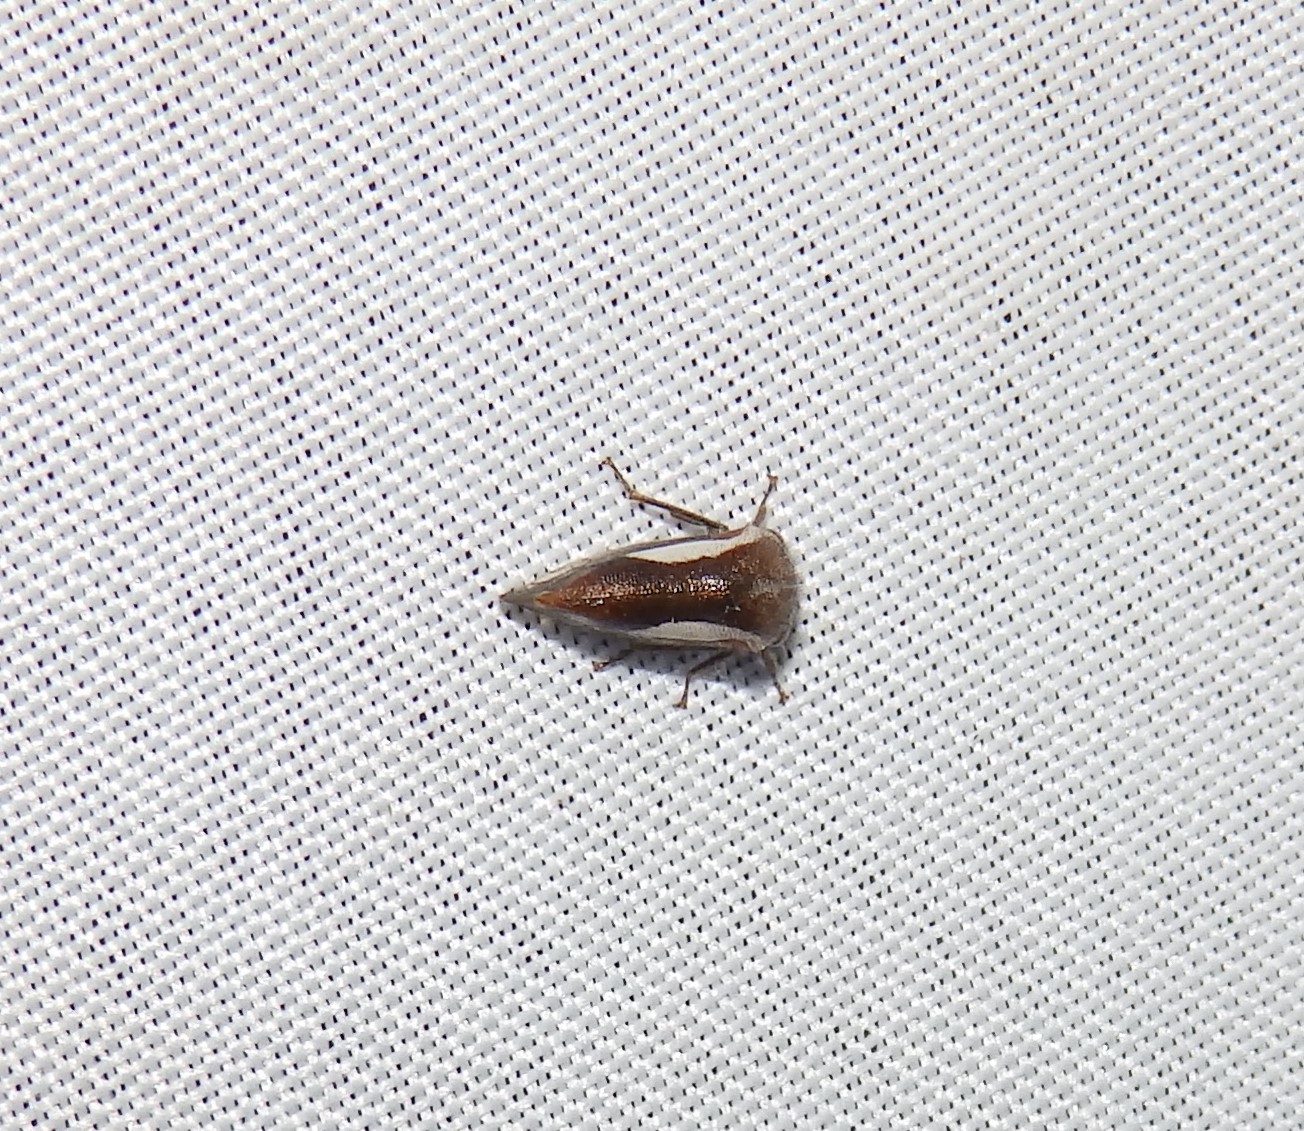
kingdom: Animalia
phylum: Arthropoda
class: Insecta
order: Hemiptera
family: Membracidae
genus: Ophiderma
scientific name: Ophiderma flavicephala
